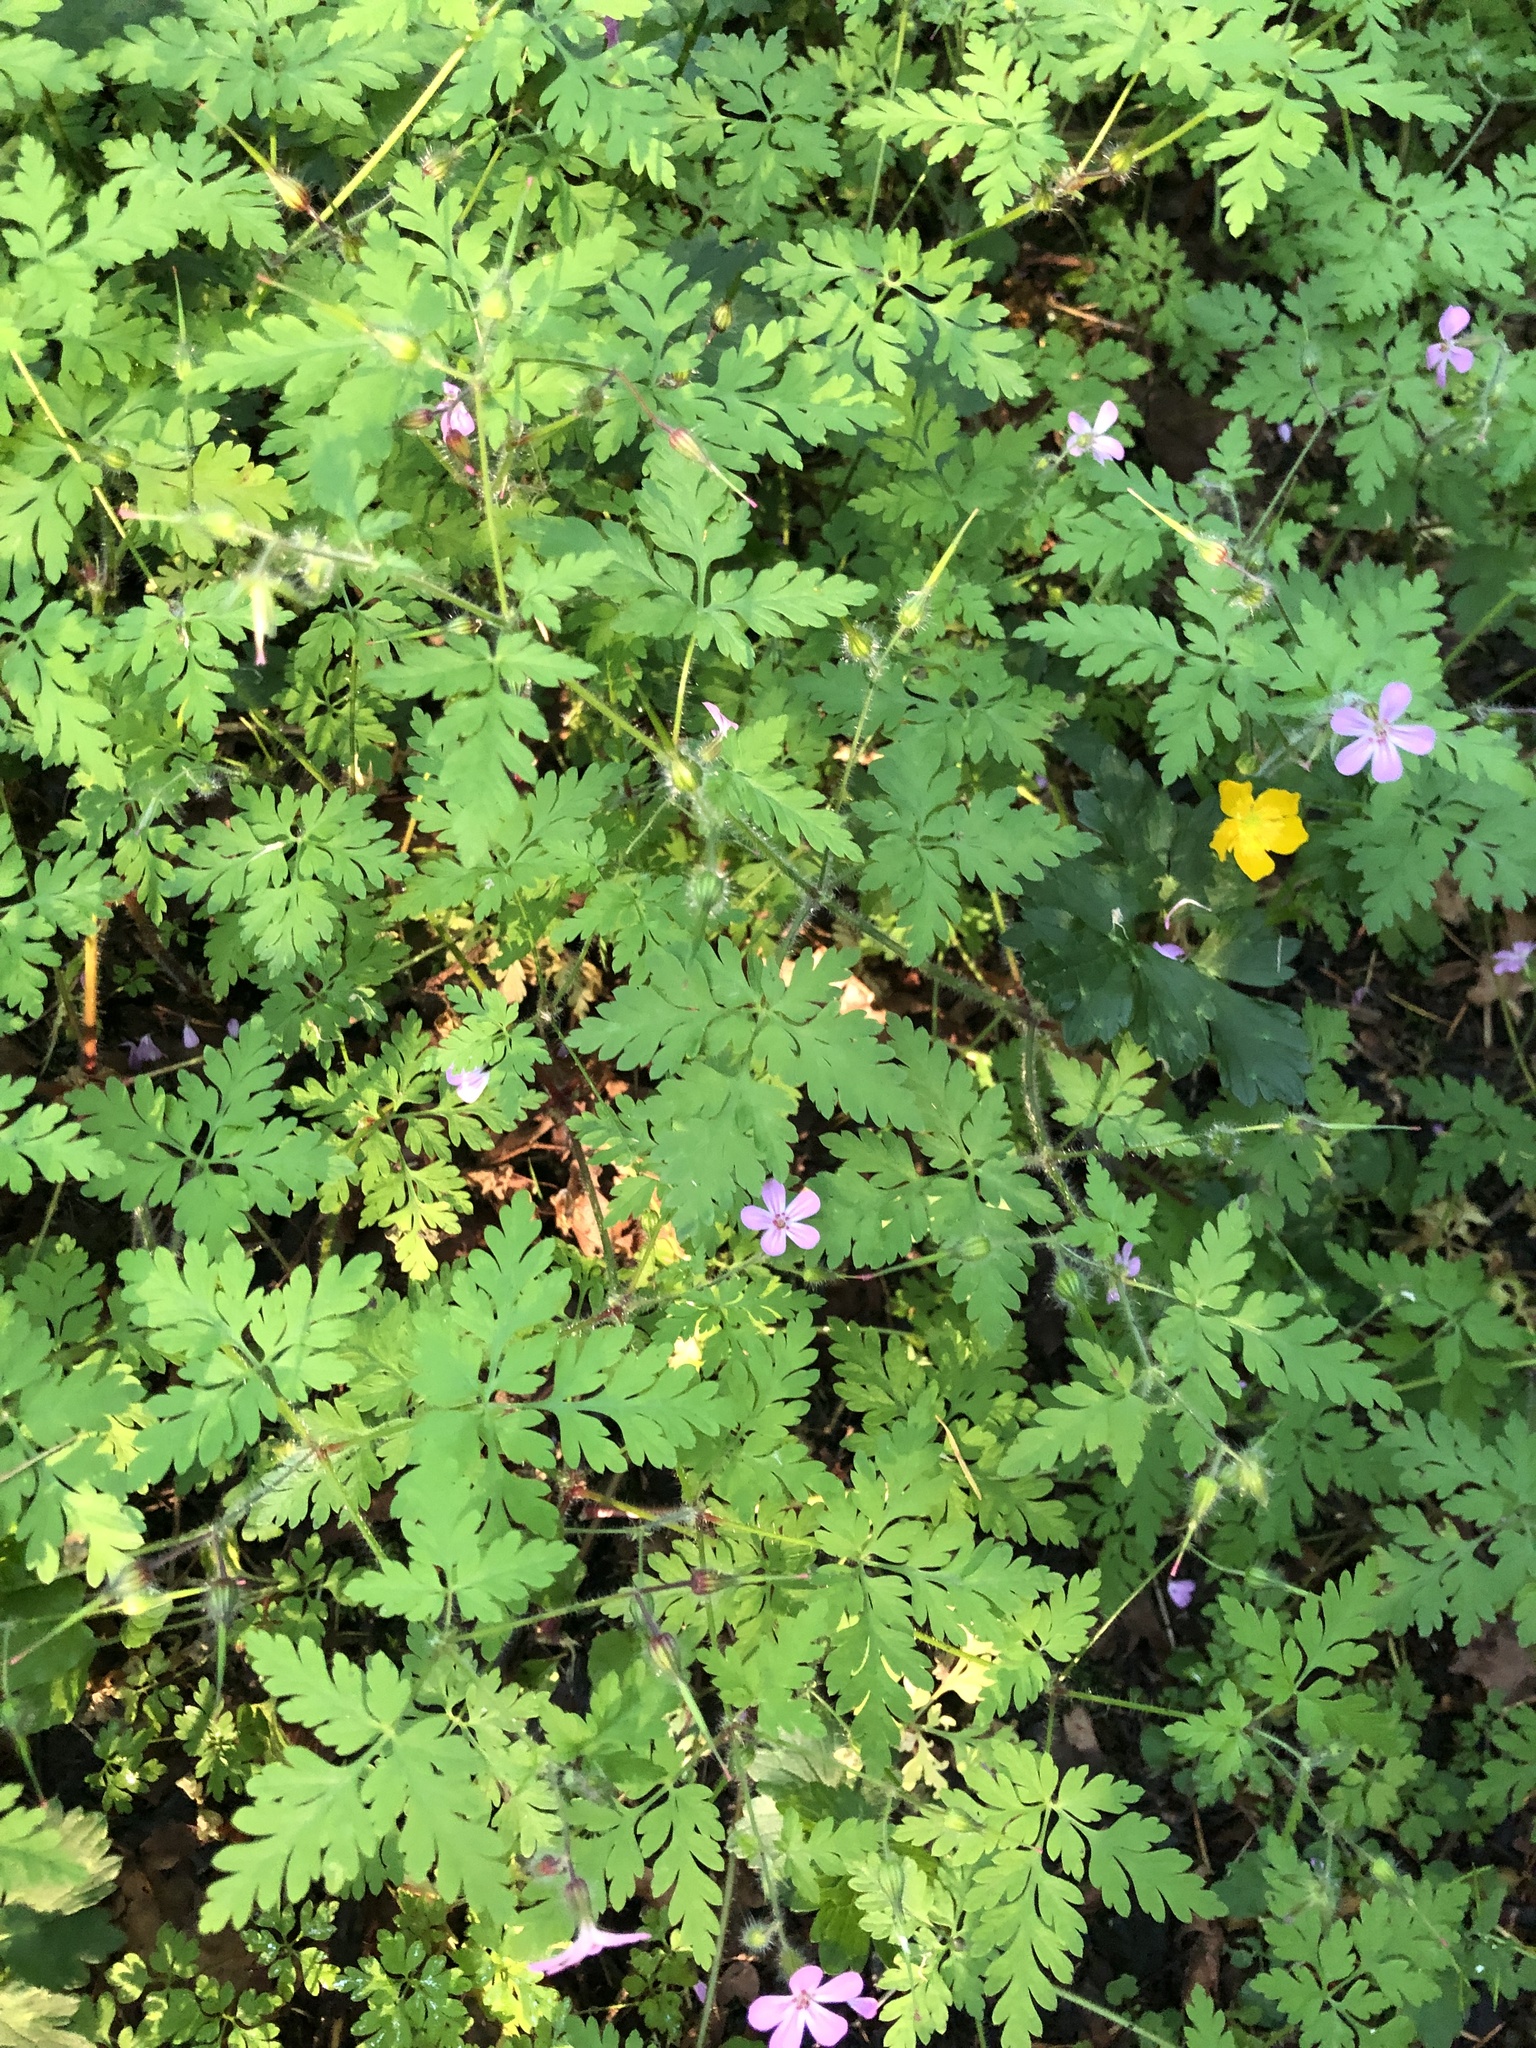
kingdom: Plantae
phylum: Tracheophyta
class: Magnoliopsida
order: Geraniales
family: Geraniaceae
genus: Geranium
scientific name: Geranium robertianum
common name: Herb-robert
